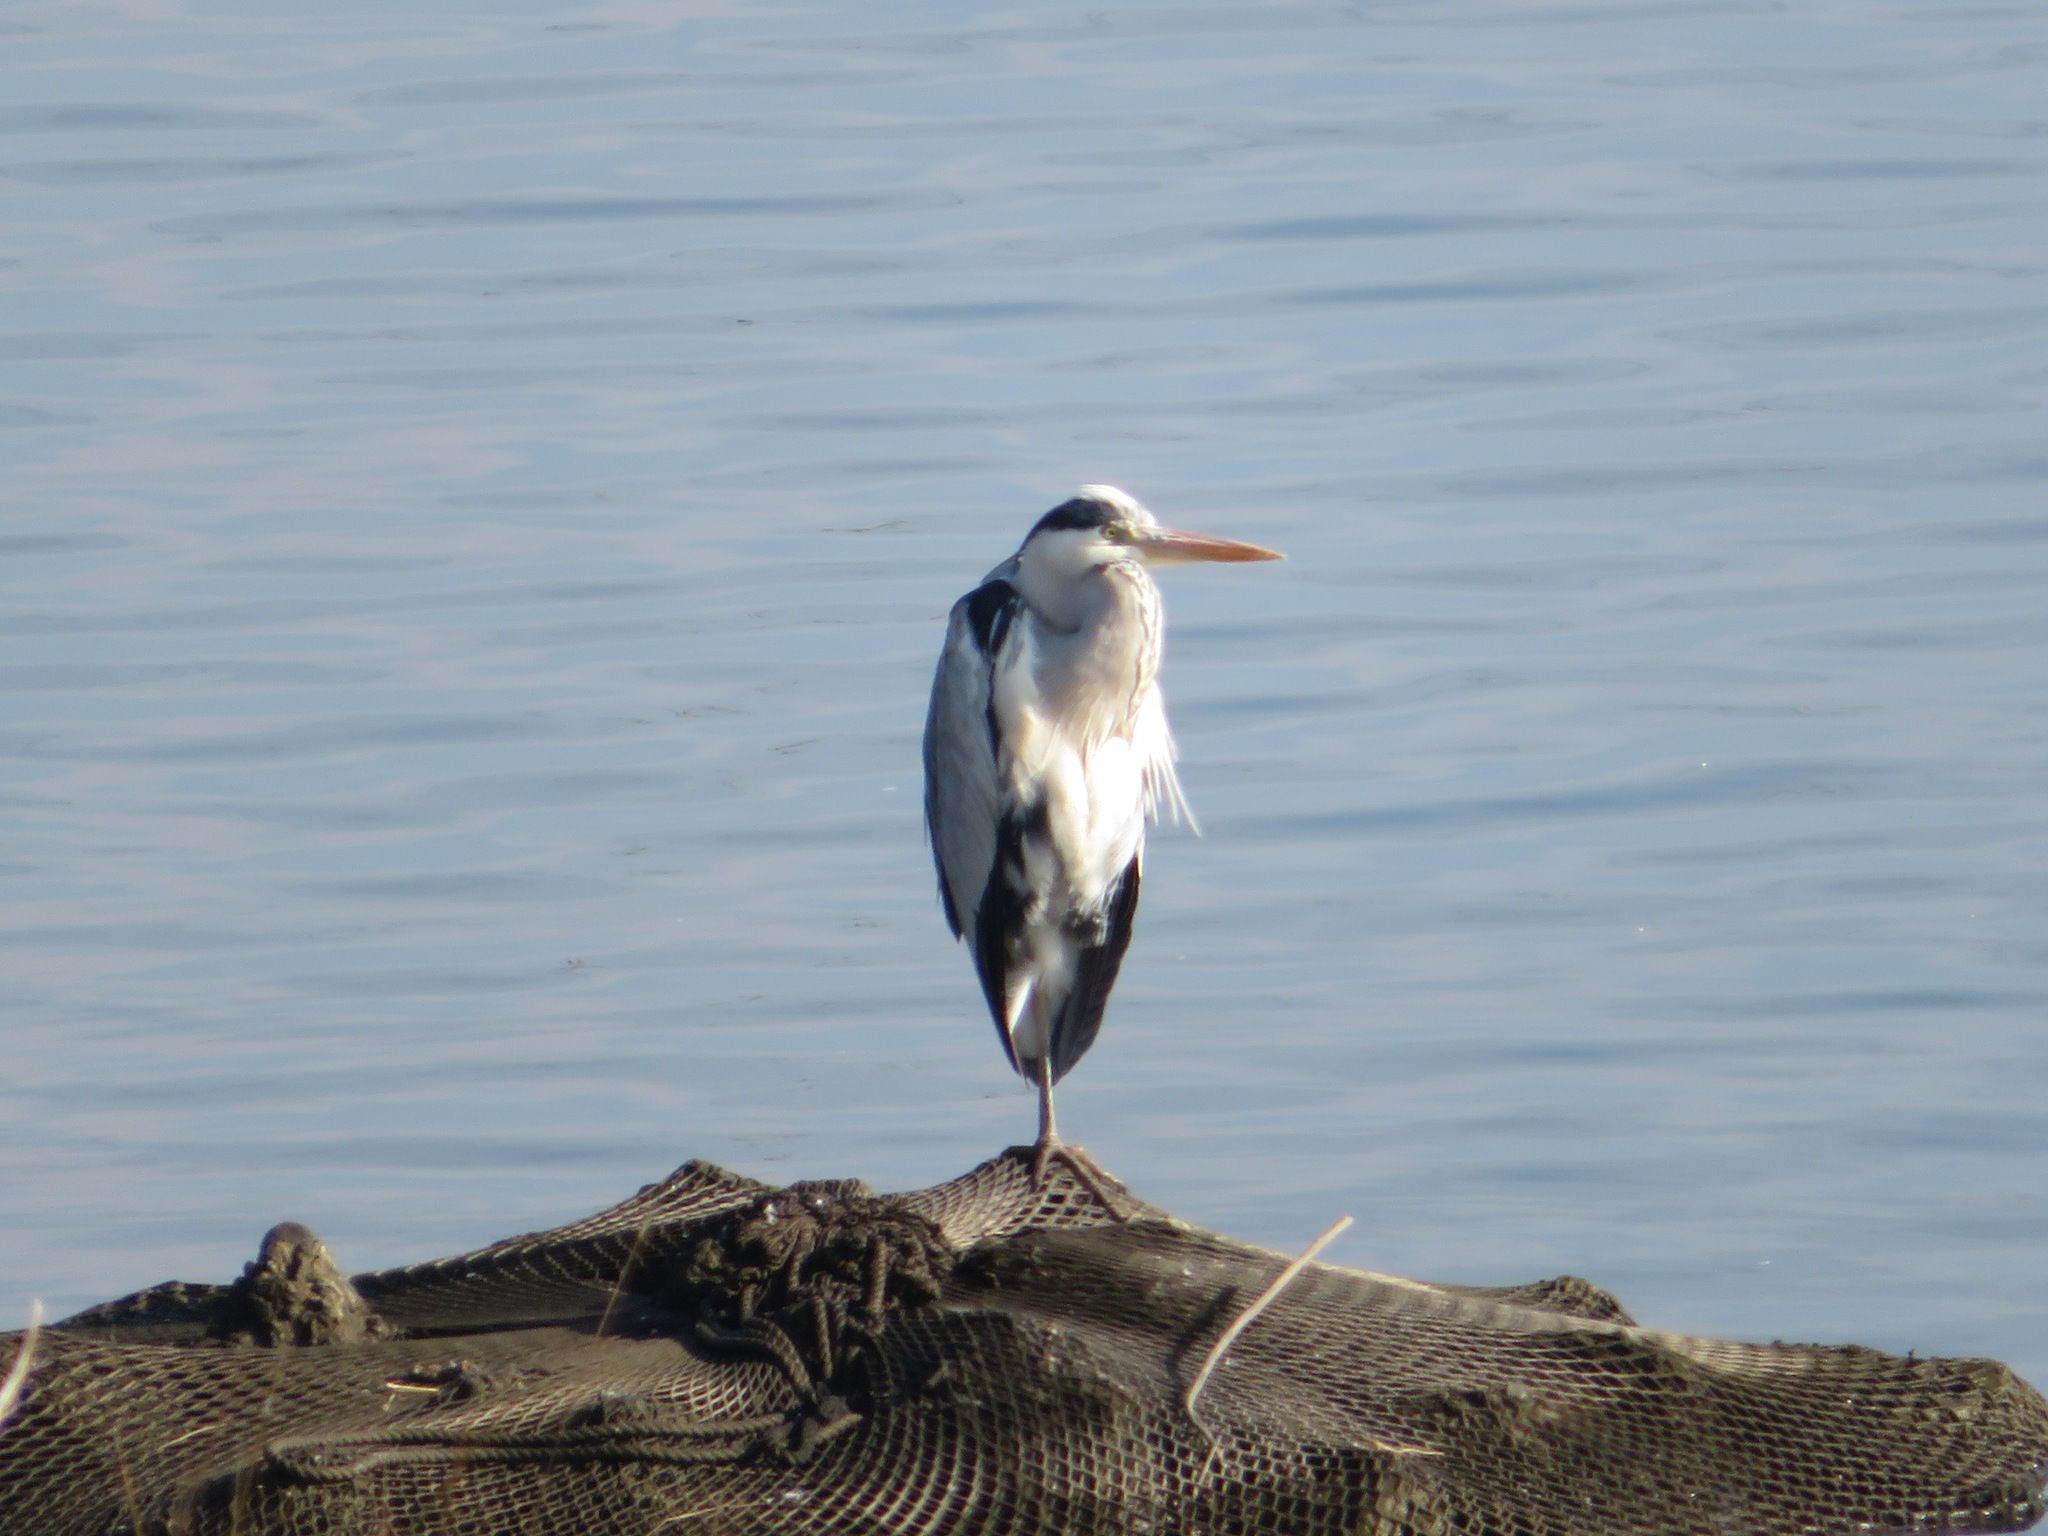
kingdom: Animalia
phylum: Chordata
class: Aves
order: Pelecaniformes
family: Ardeidae
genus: Ardea
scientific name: Ardea cinerea
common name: Grey heron
